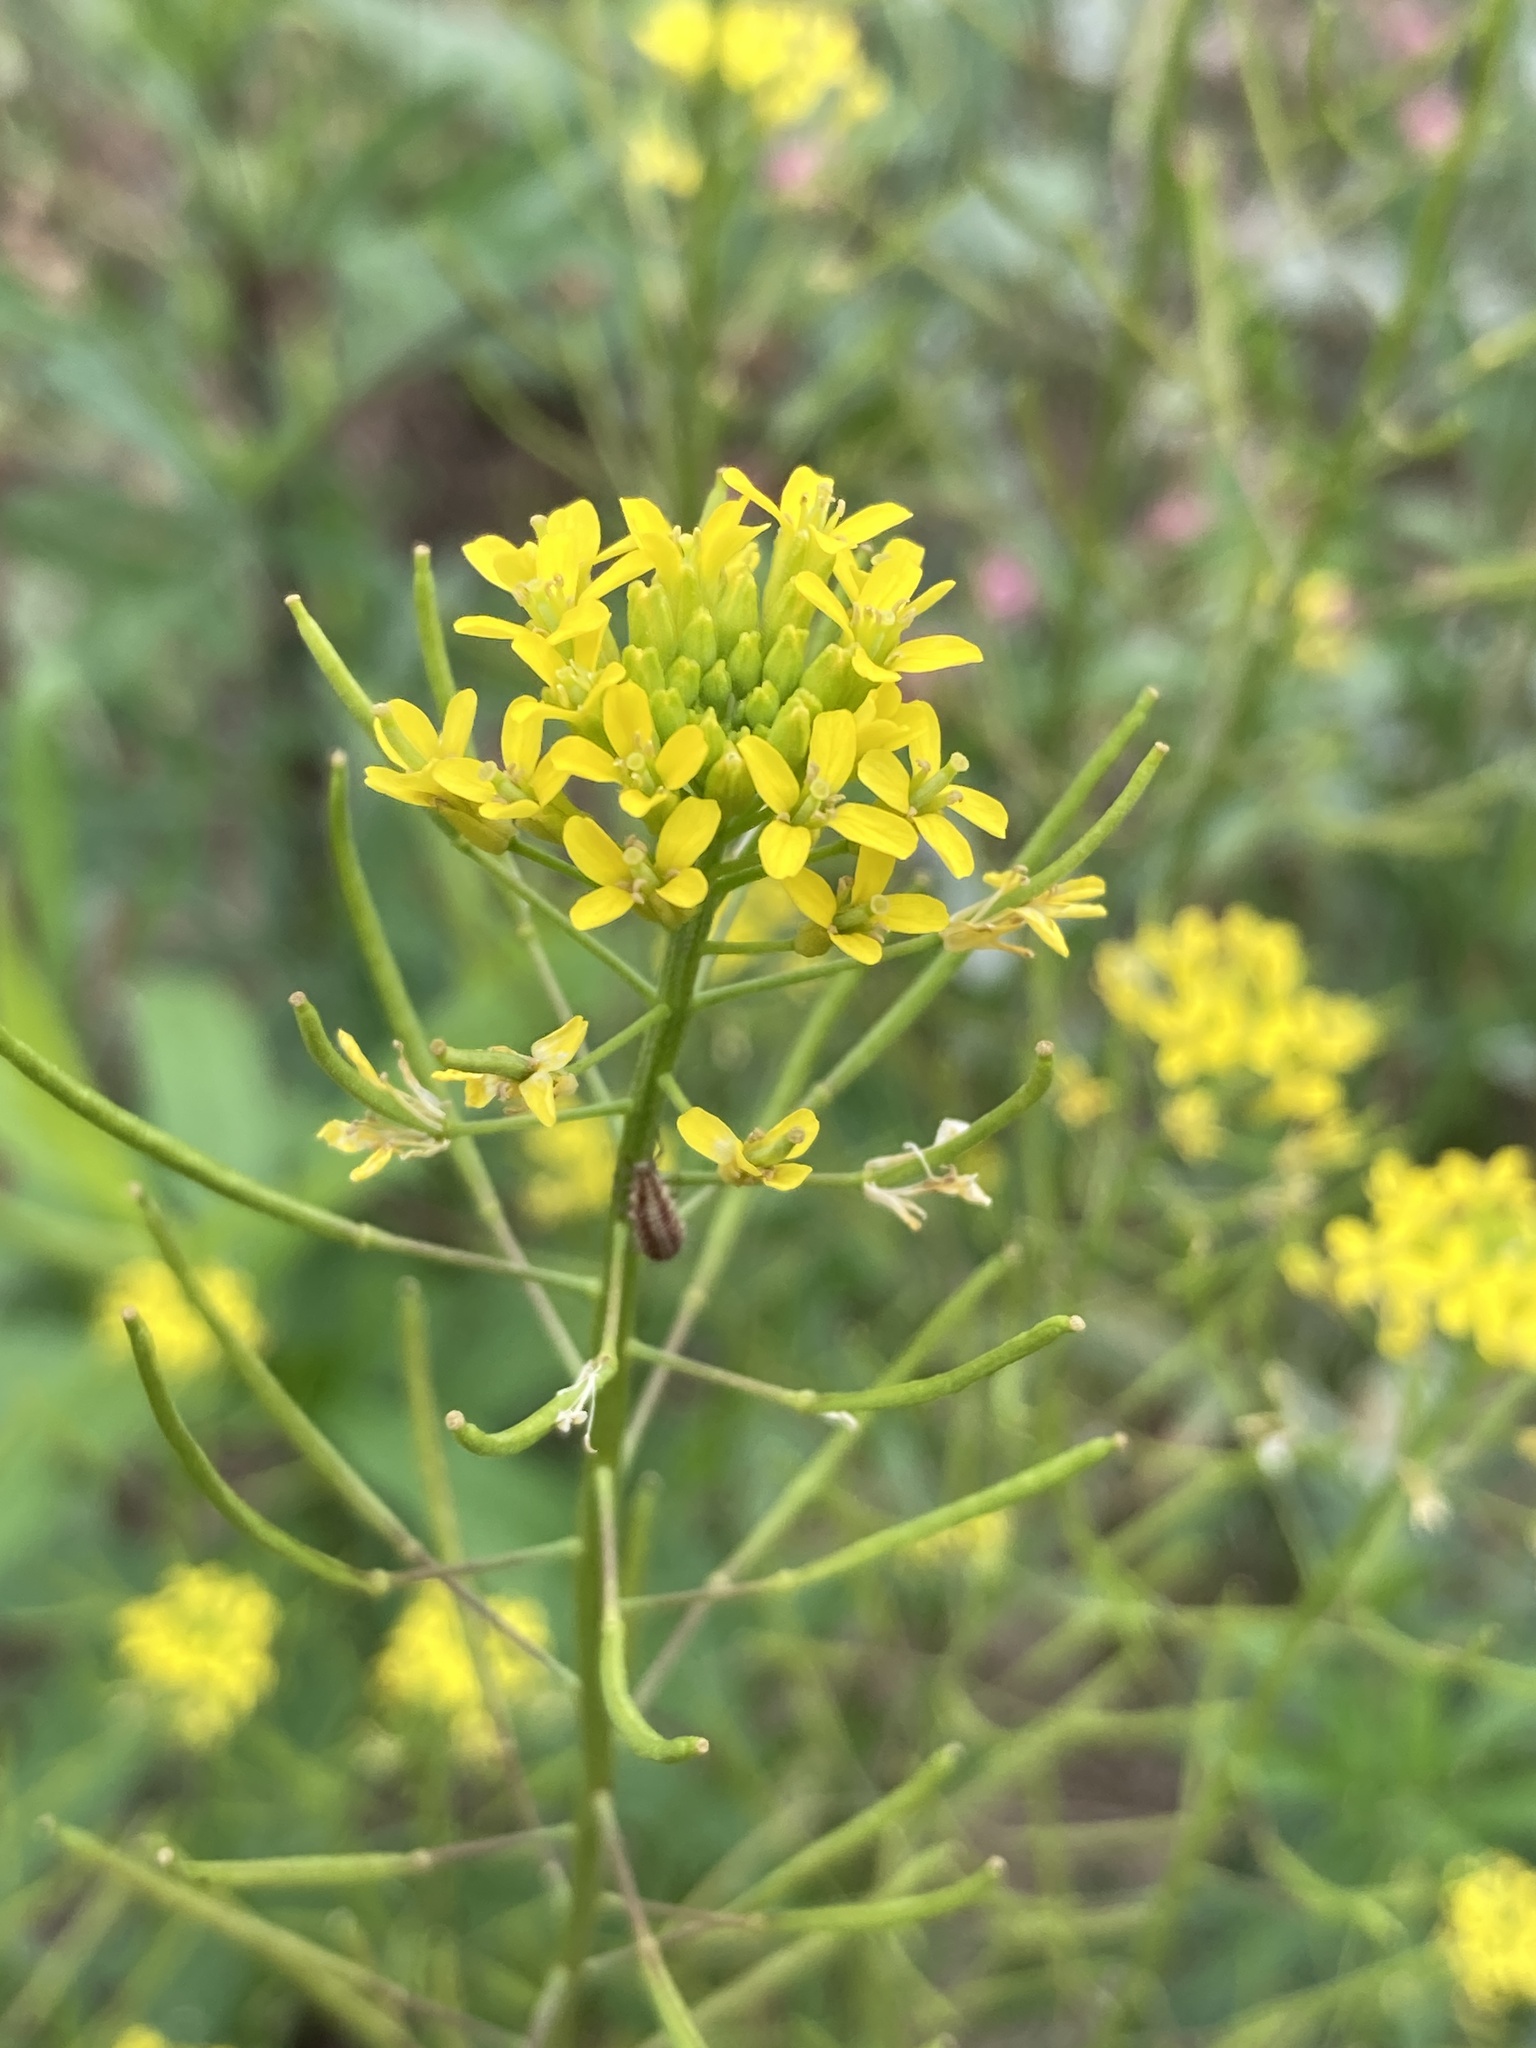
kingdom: Plantae
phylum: Tracheophyta
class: Magnoliopsida
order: Brassicales
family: Brassicaceae
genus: Erysimum
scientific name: Erysimum cheiranthoides
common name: Treacle mustard
